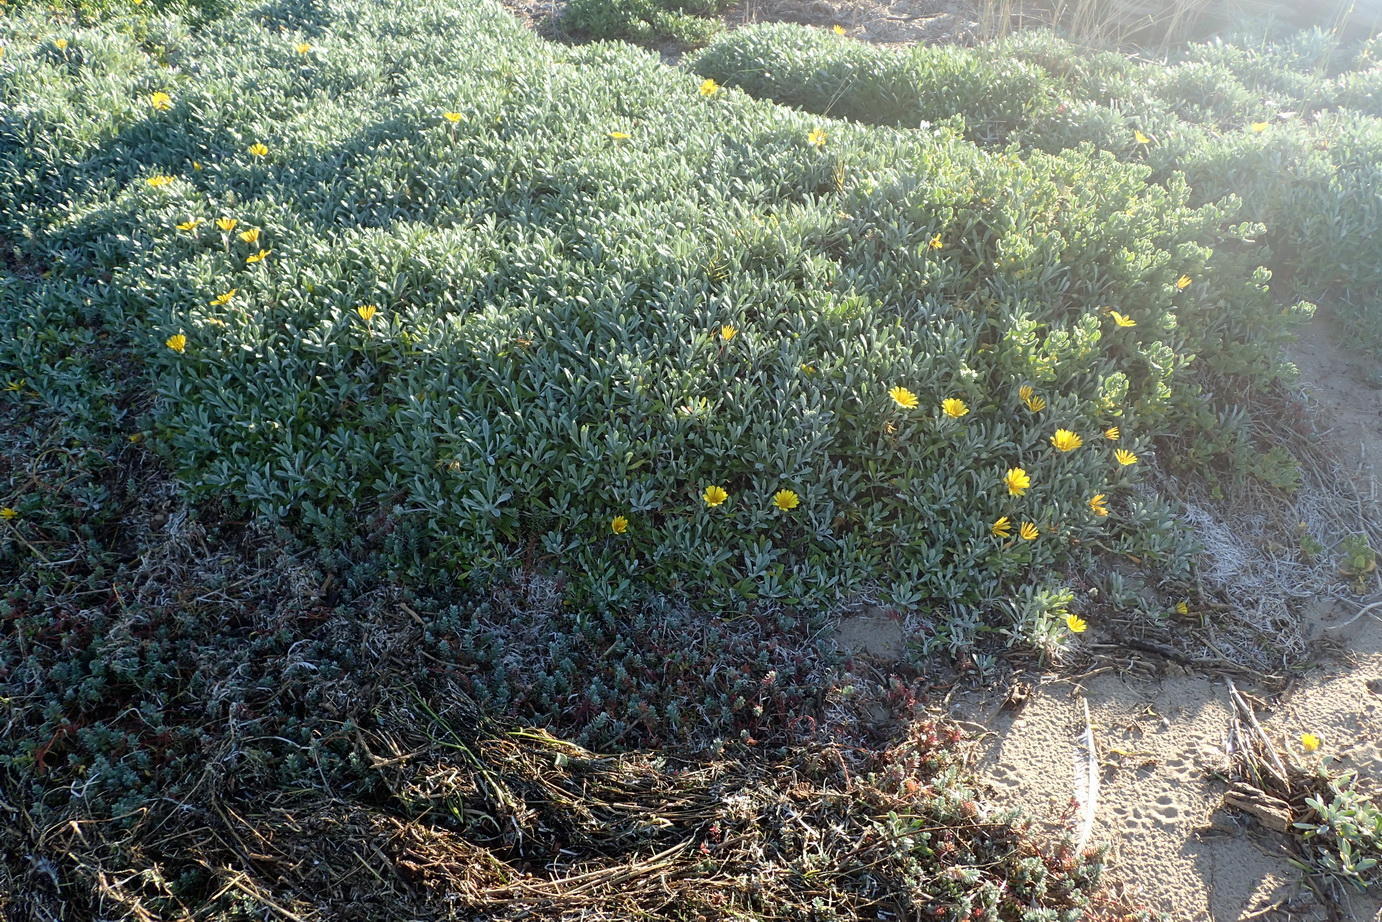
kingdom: Plantae
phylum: Tracheophyta
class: Magnoliopsida
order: Asterales
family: Asteraceae
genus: Gazania
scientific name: Gazania rigens
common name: Treasureflower
